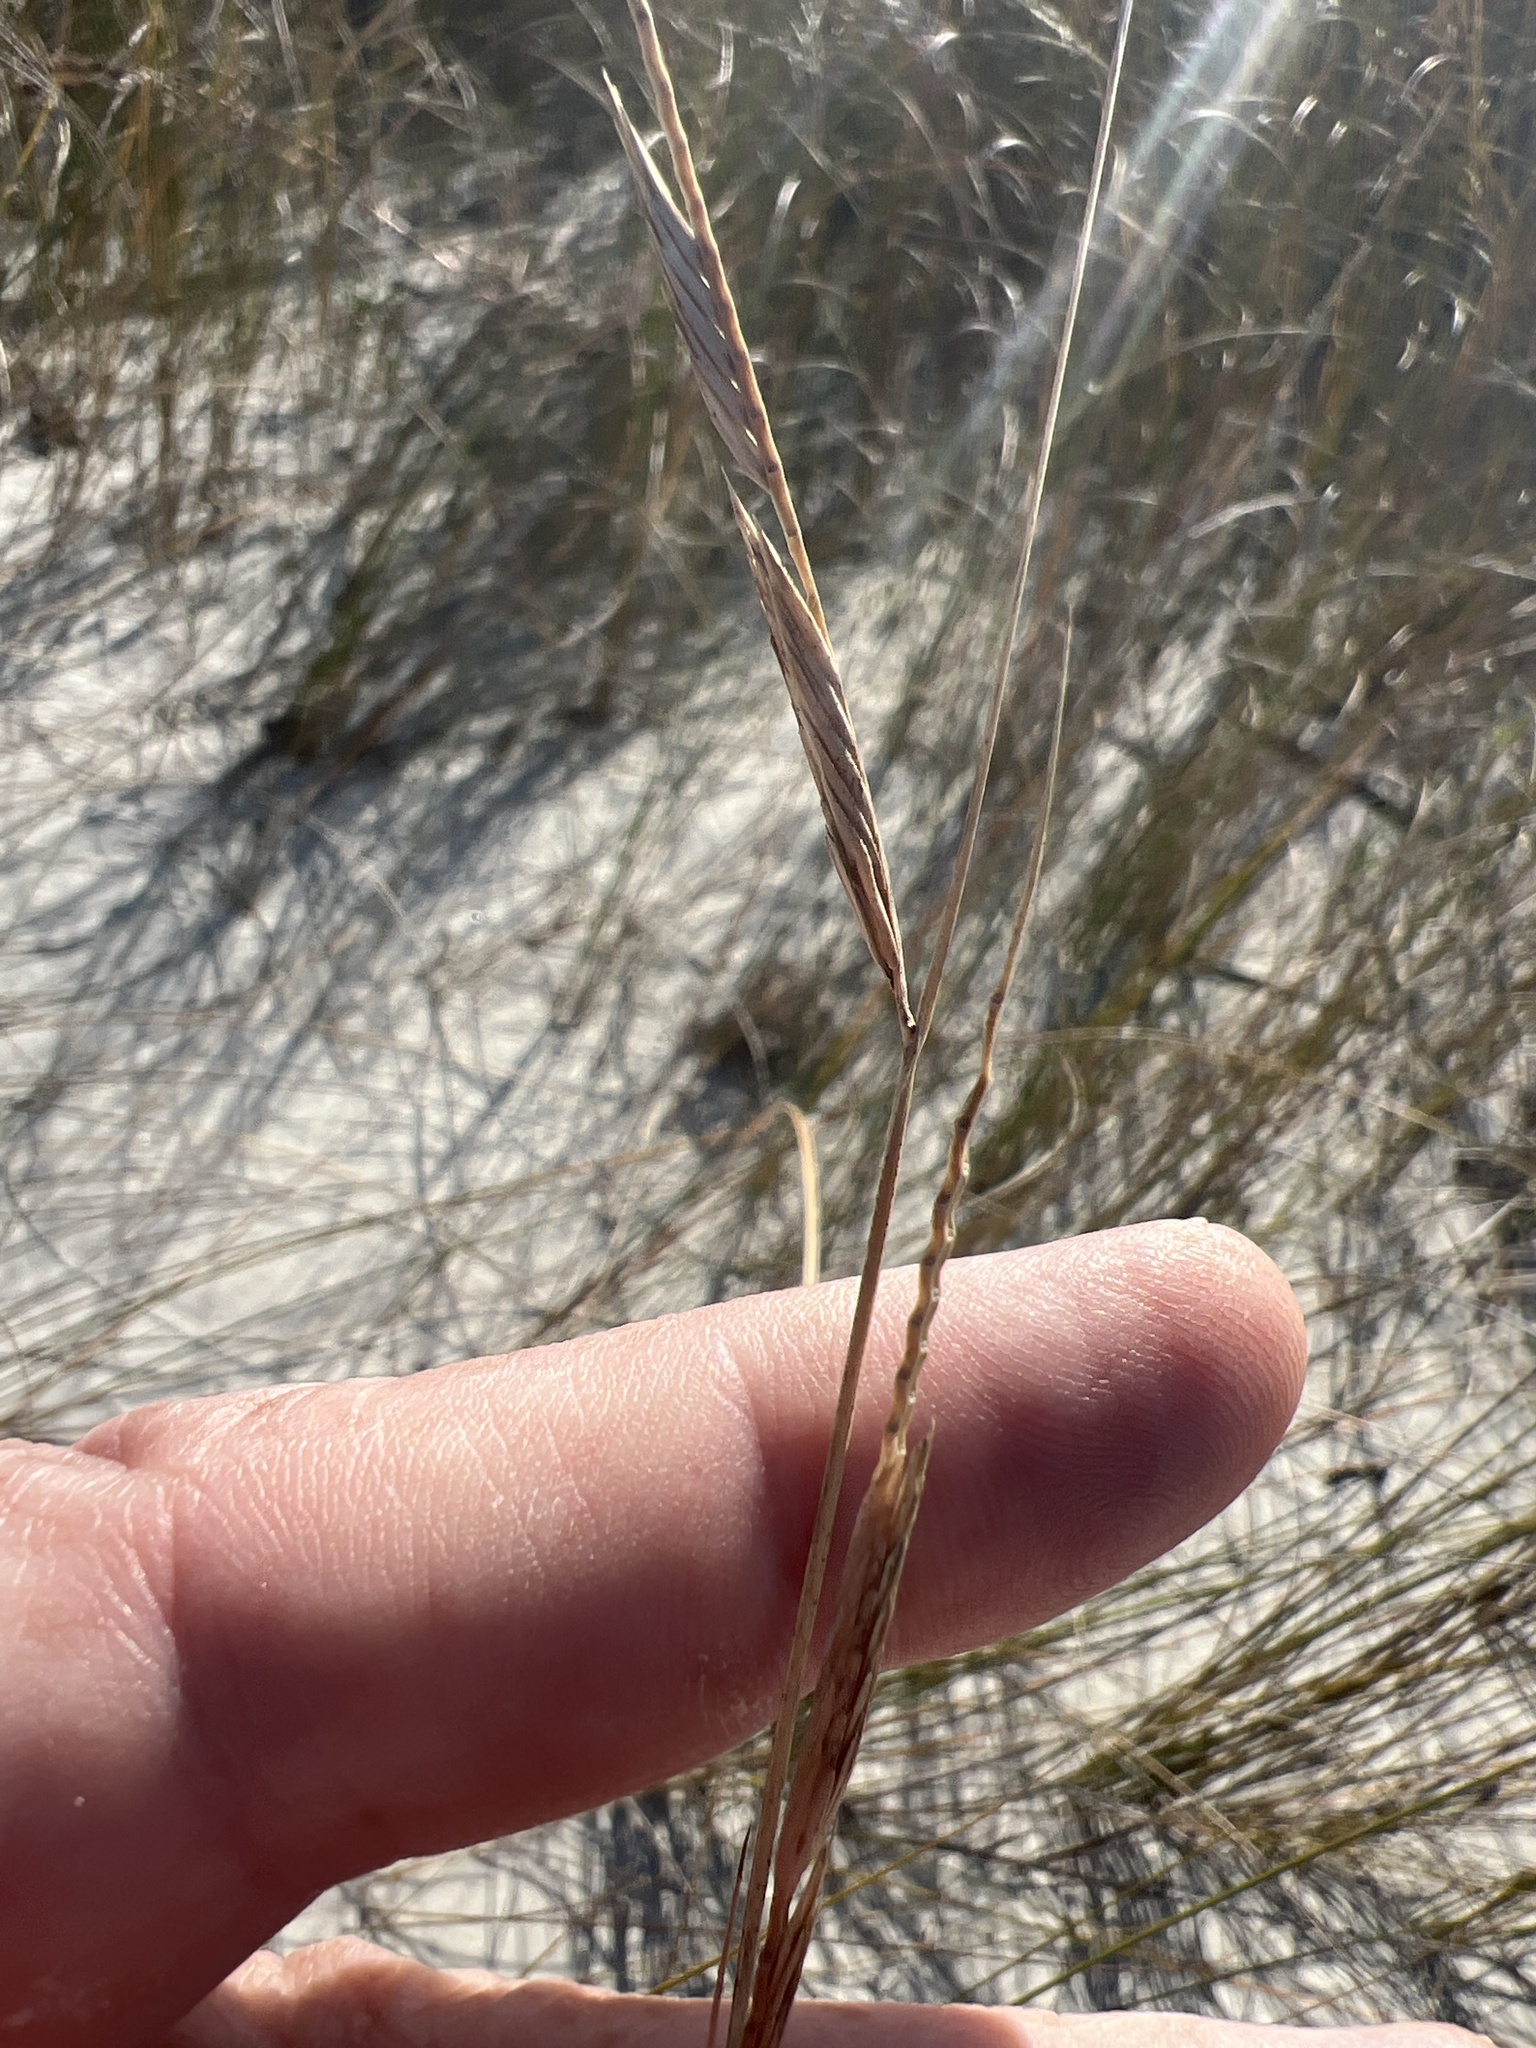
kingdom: Plantae
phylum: Tracheophyta
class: Liliopsida
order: Poales
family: Poaceae
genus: Sporobolus
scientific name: Sporobolus pumilus
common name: Highwater grass
